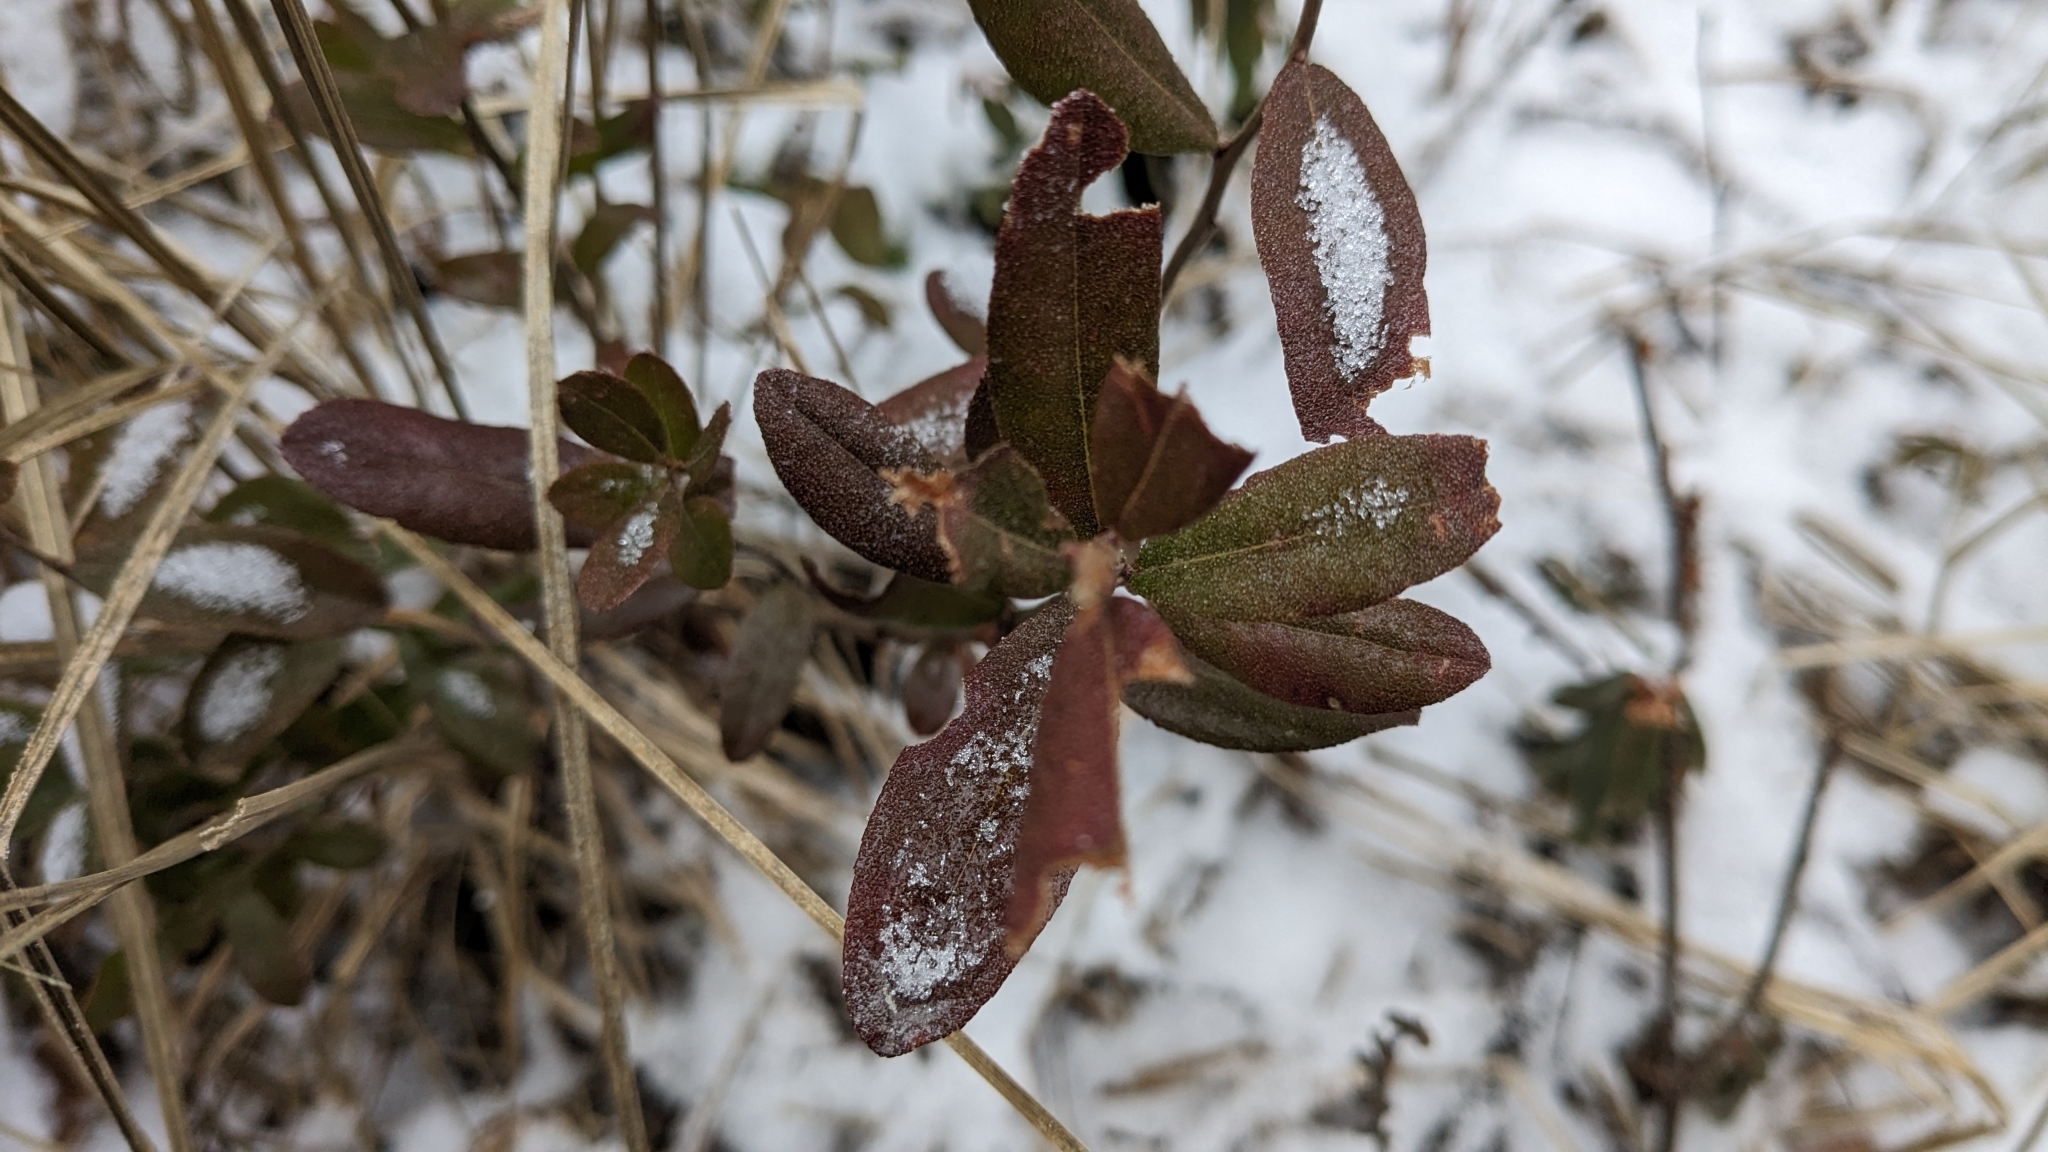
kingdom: Plantae
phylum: Tracheophyta
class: Magnoliopsida
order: Ericales
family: Ericaceae
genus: Chamaedaphne
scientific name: Chamaedaphne calyculata
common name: Leatherleaf
